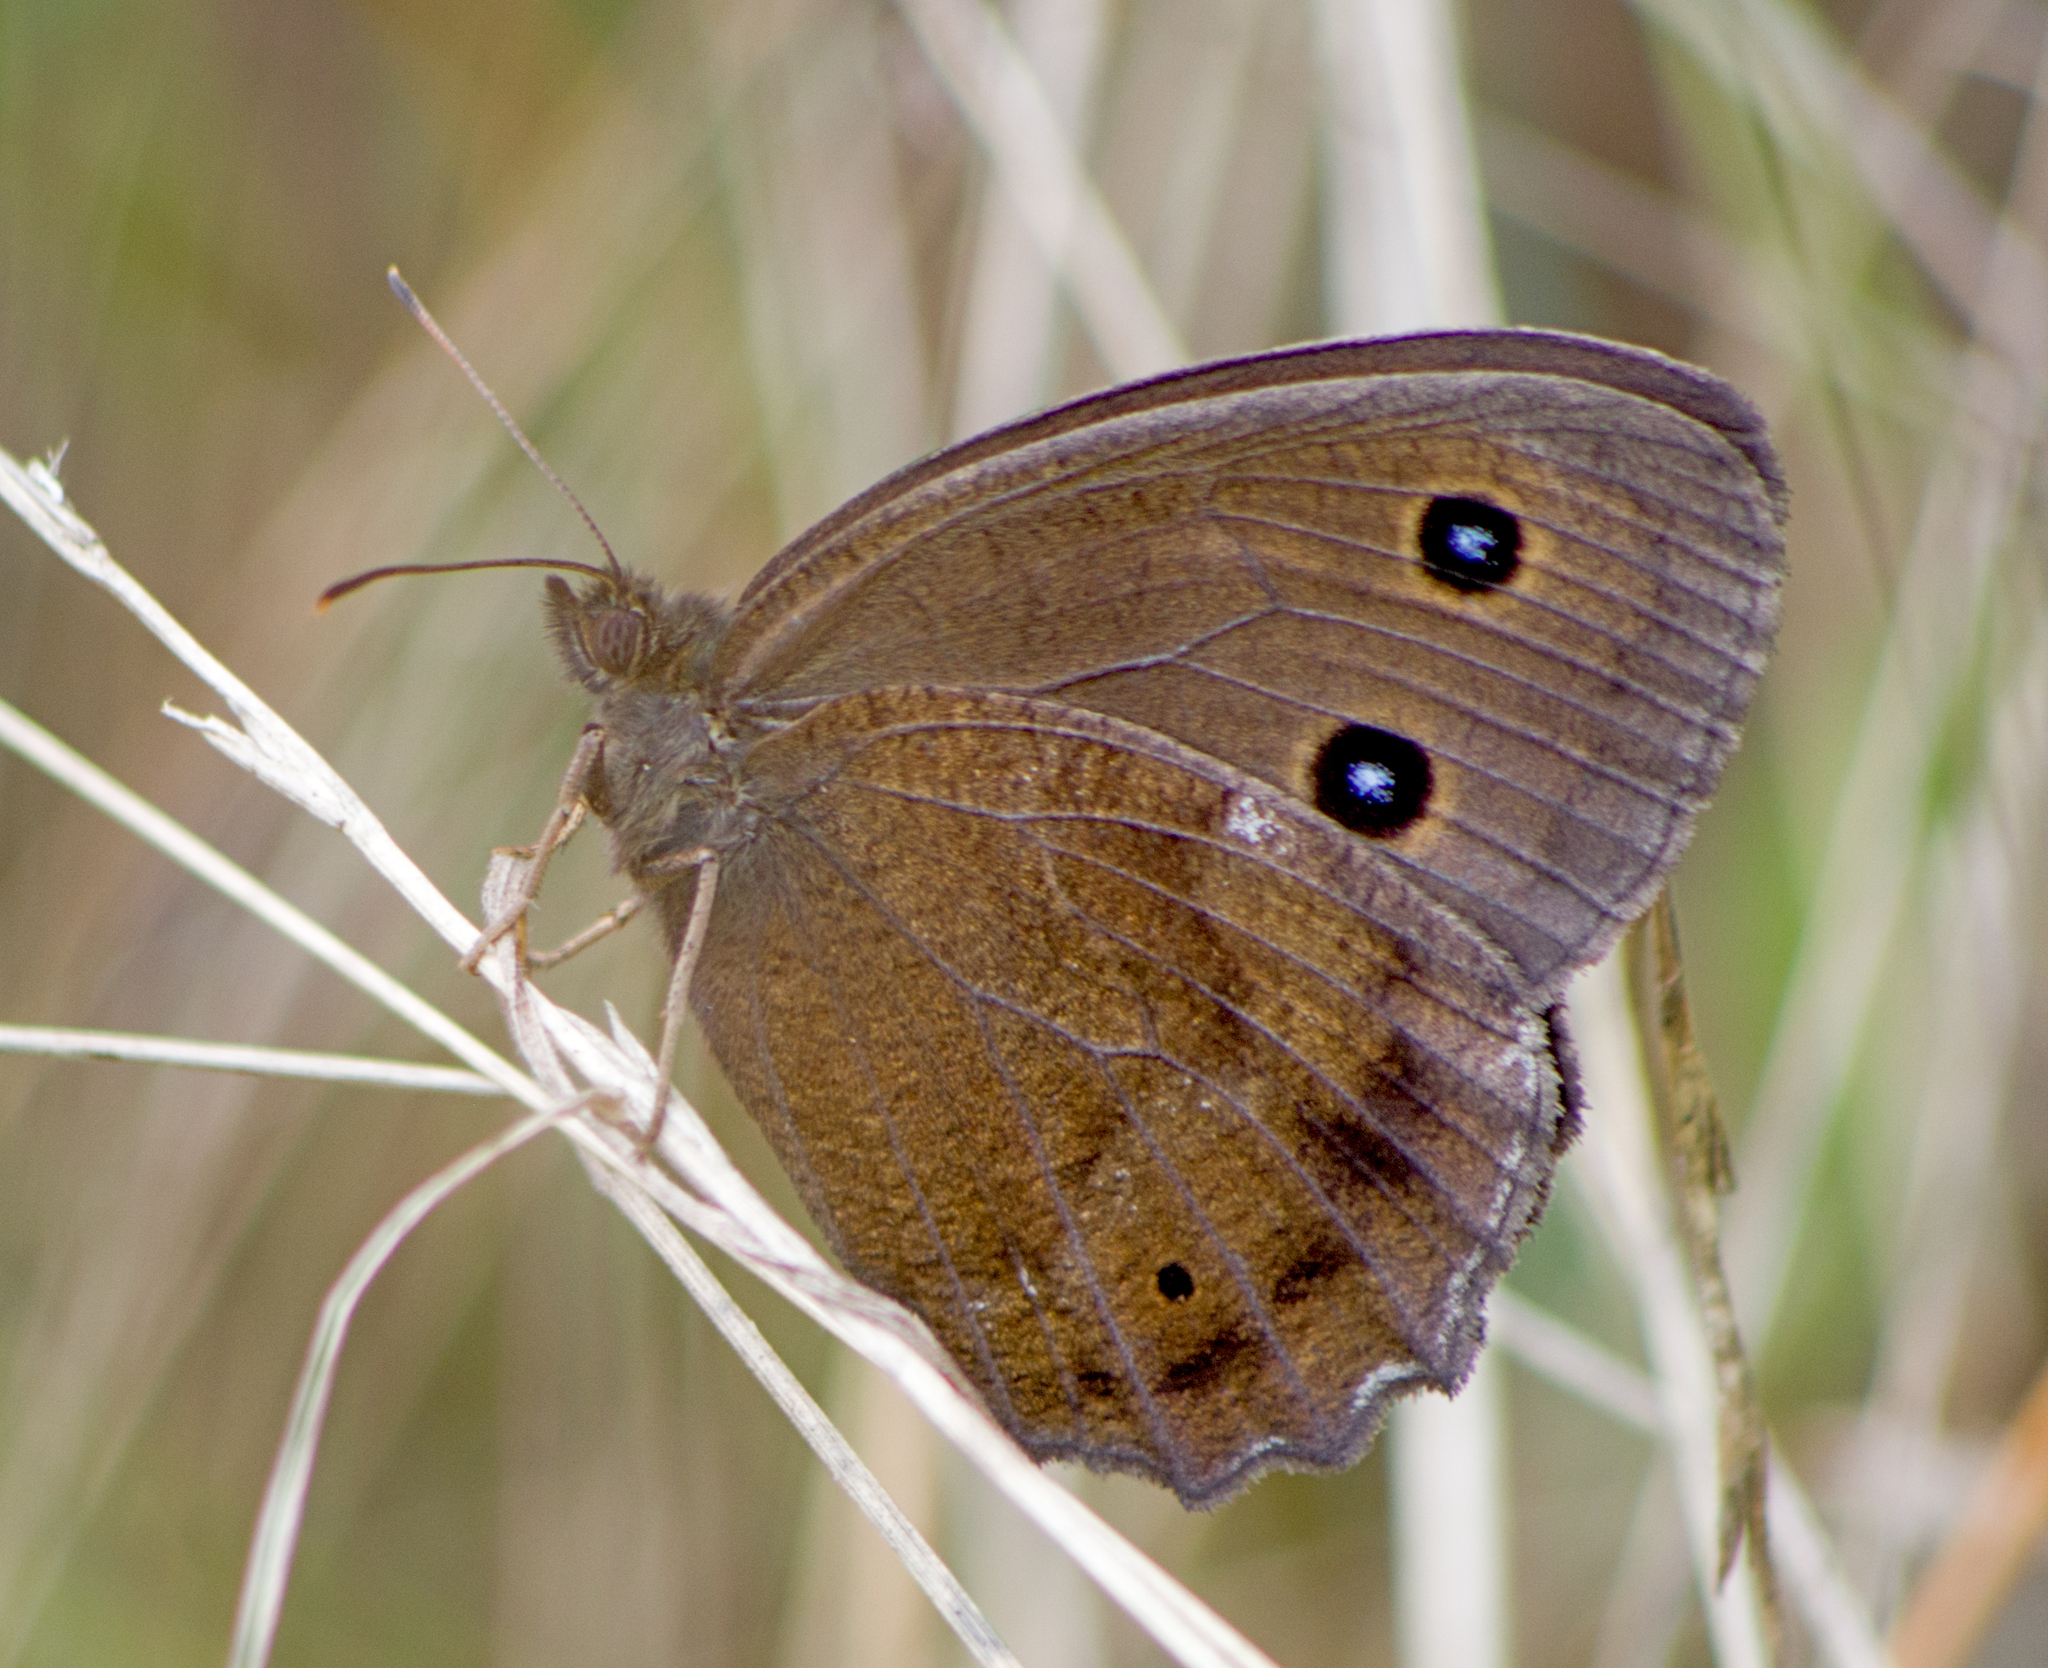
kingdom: Animalia
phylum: Arthropoda
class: Insecta
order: Lepidoptera
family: Nymphalidae
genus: Minois
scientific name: Minois dryas
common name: Dryad
